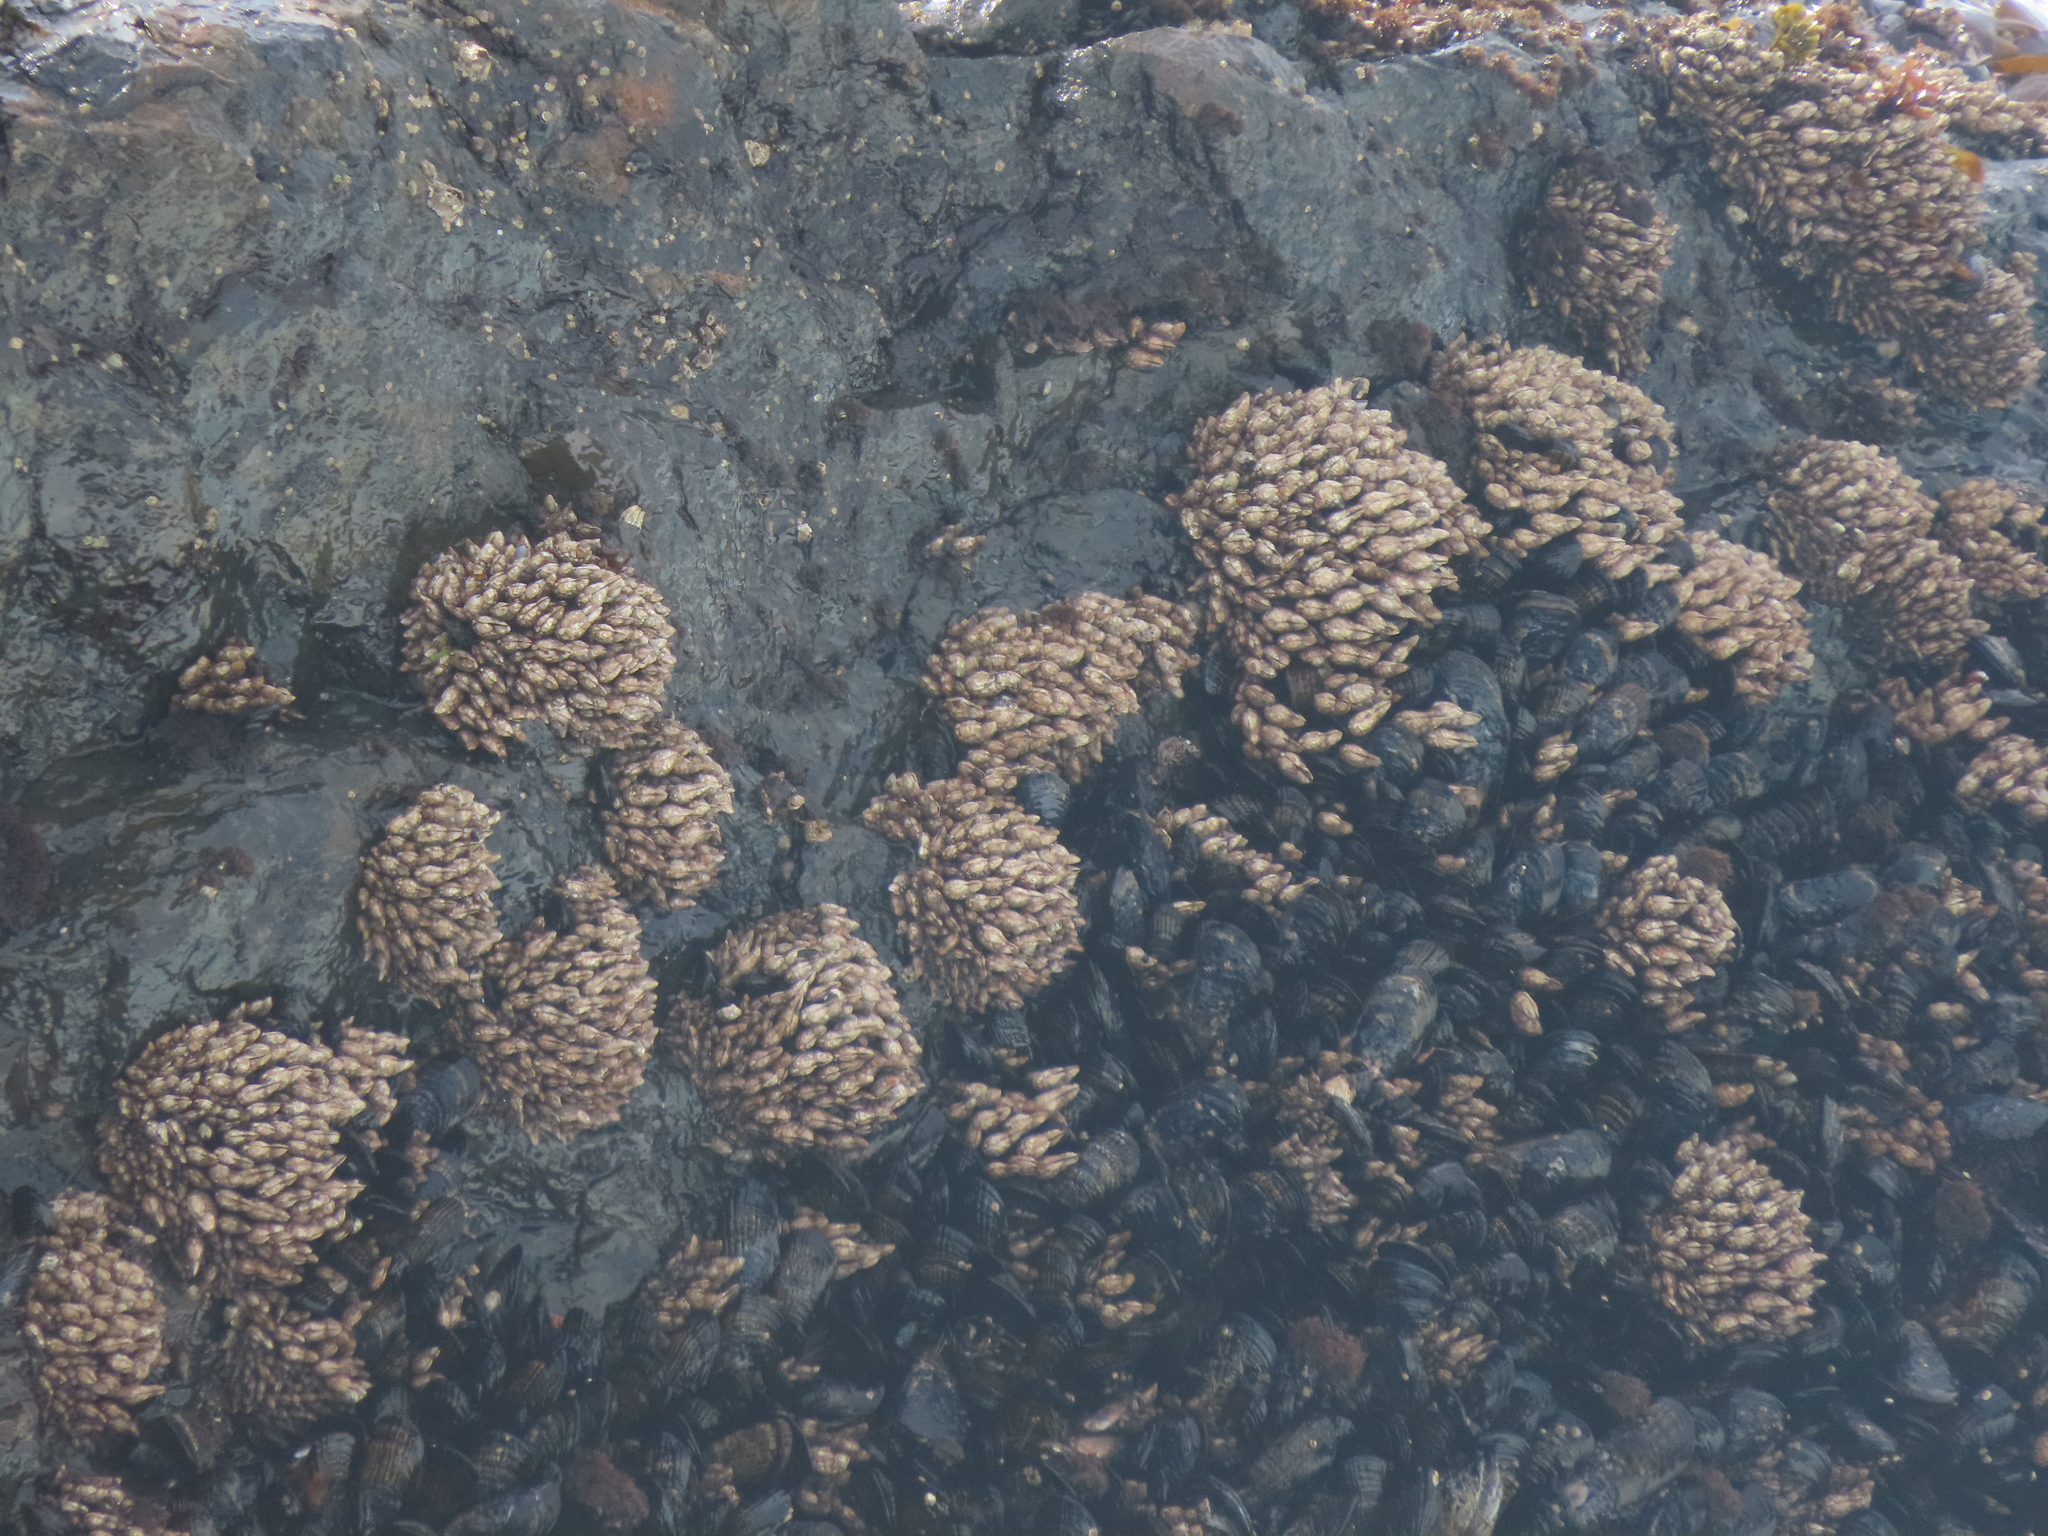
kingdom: Animalia
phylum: Arthropoda
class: Maxillopoda
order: Pedunculata
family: Pollicipedidae
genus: Pollicipes
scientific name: Pollicipes polymerus
